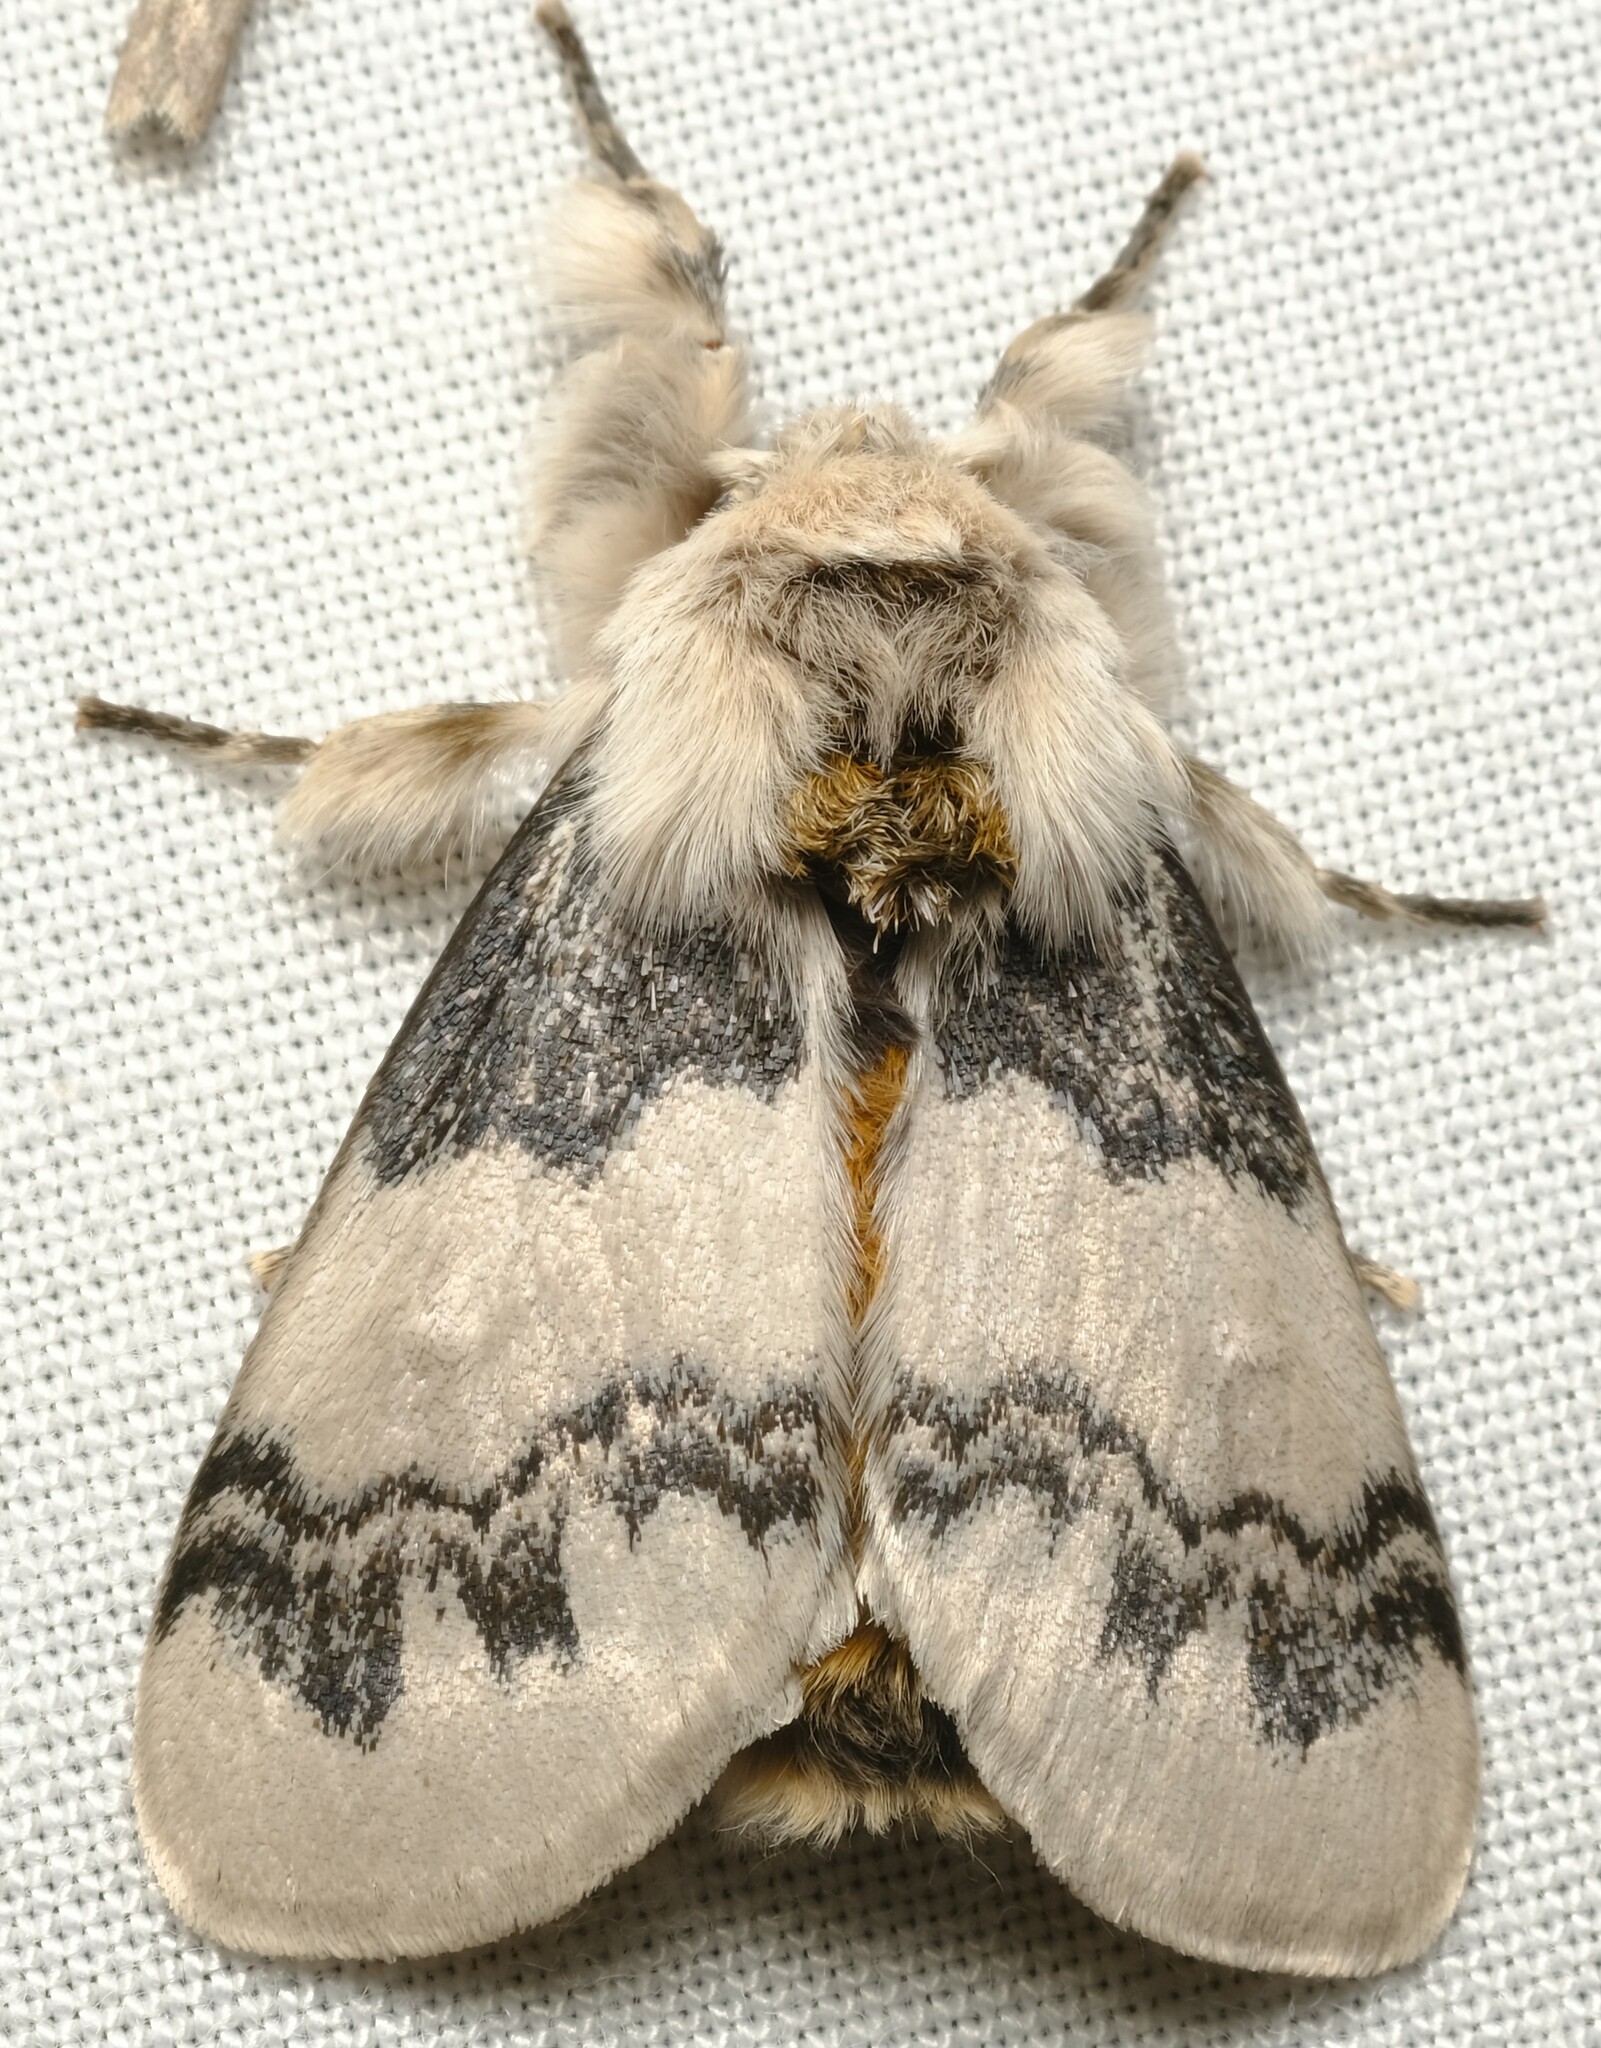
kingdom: Animalia
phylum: Arthropoda
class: Insecta
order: Lepidoptera
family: Erebidae
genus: Iropoca
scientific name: Iropoca rotundata
